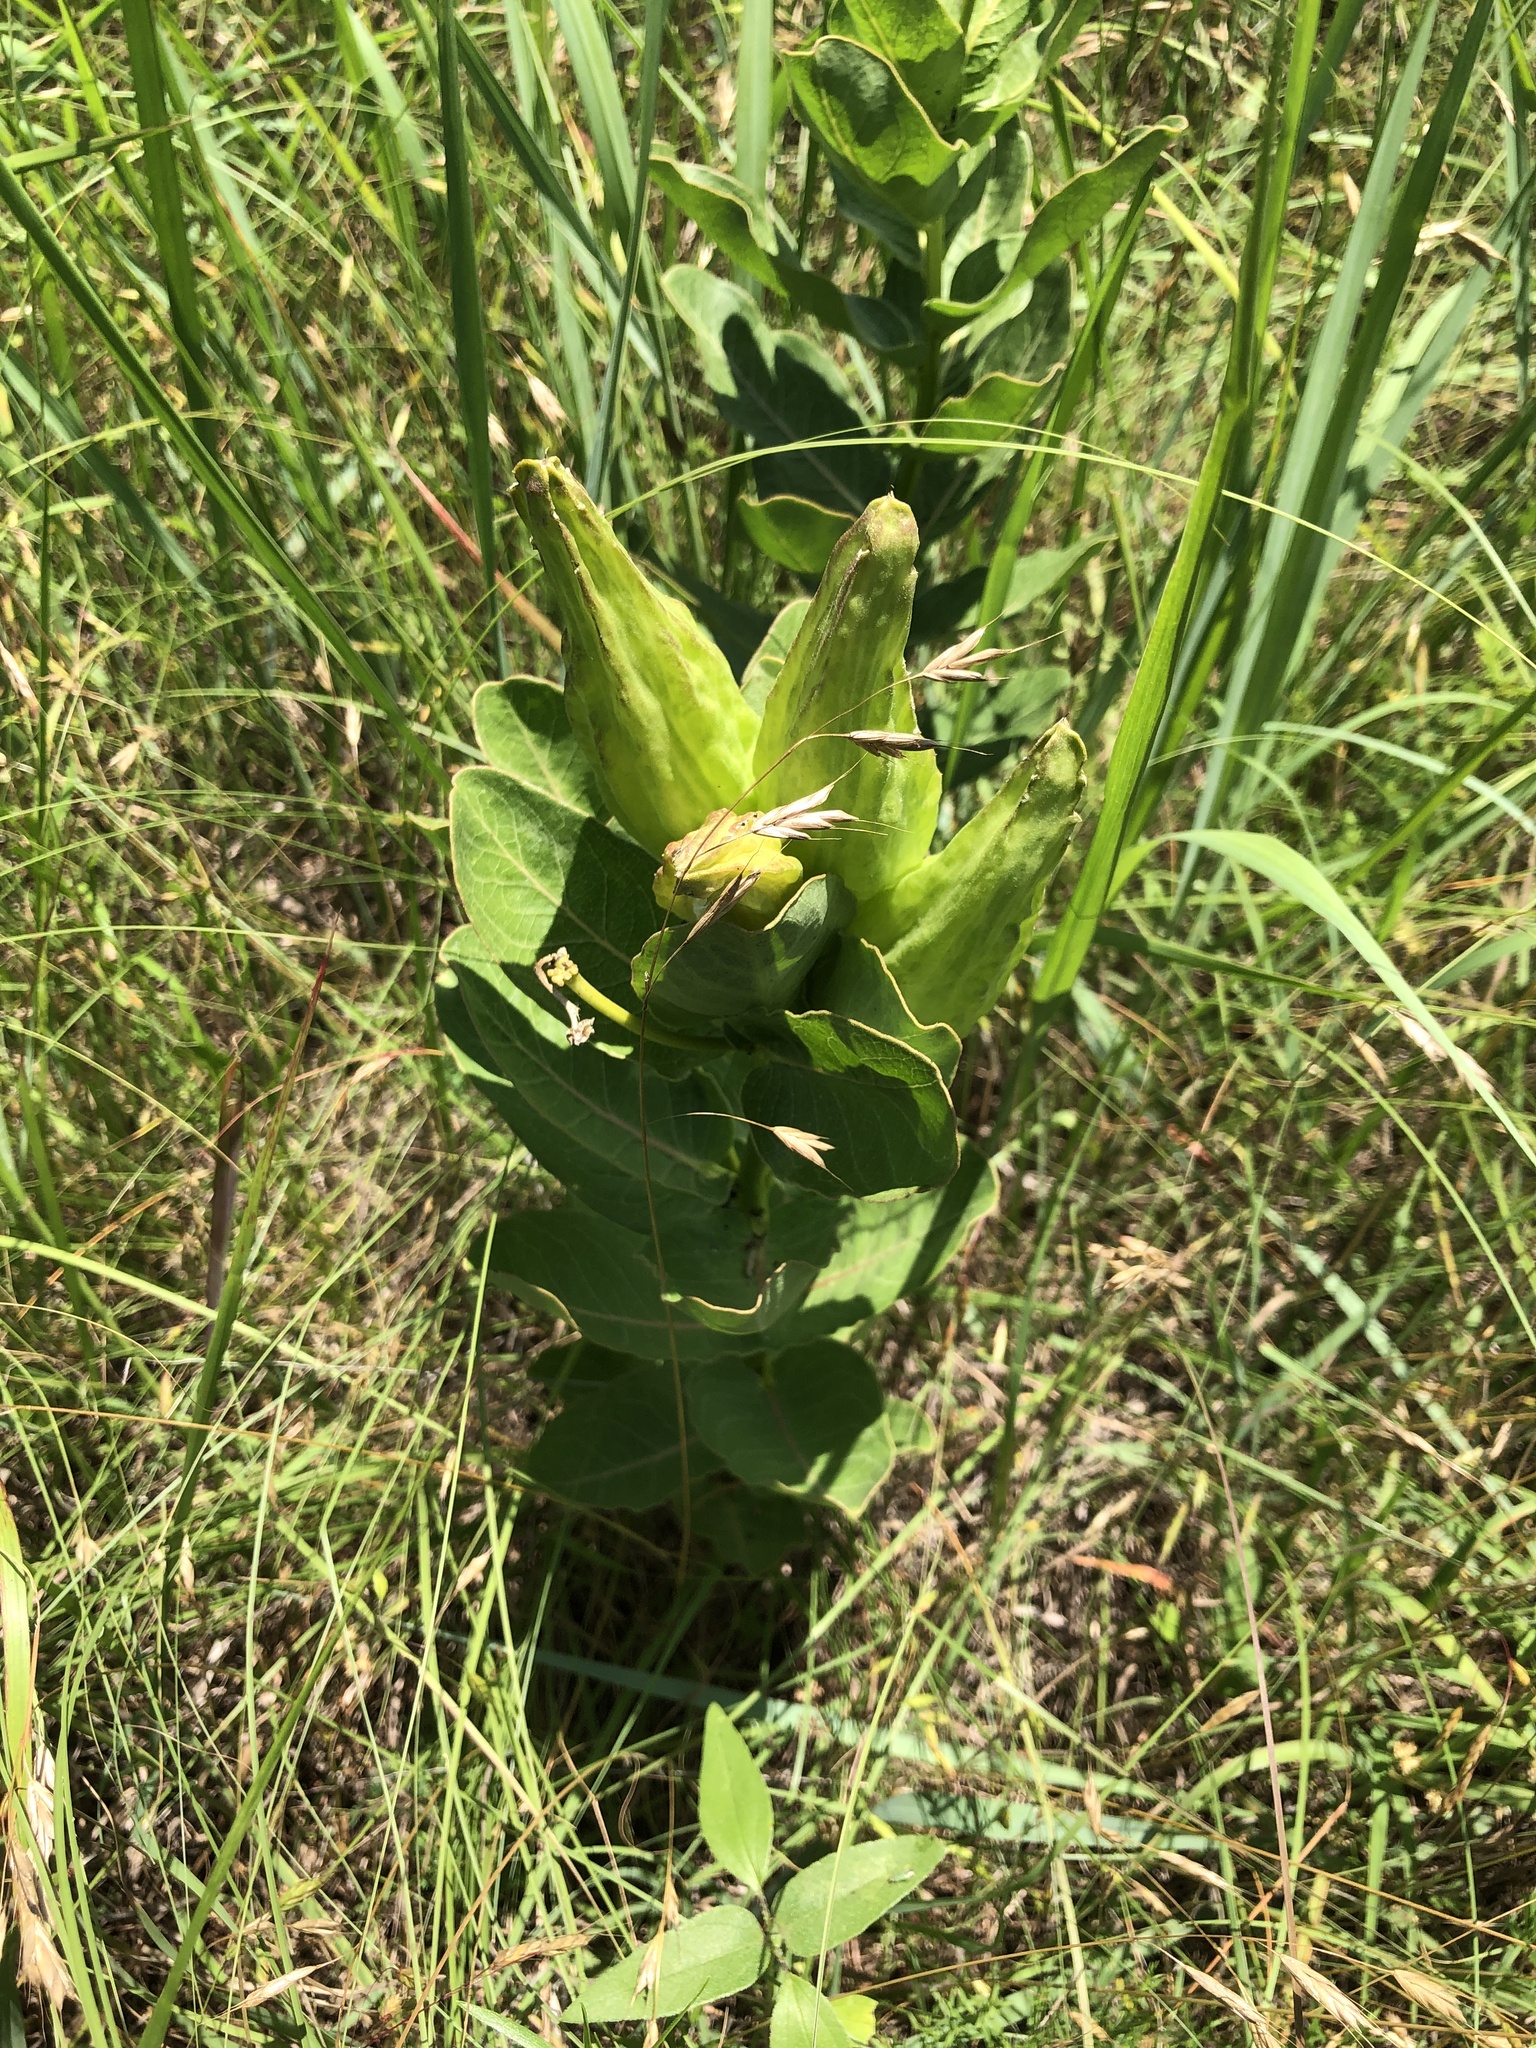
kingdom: Plantae
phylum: Tracheophyta
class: Magnoliopsida
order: Gentianales
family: Apocynaceae
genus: Asclepias
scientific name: Asclepias viridis
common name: Antelope-horns
